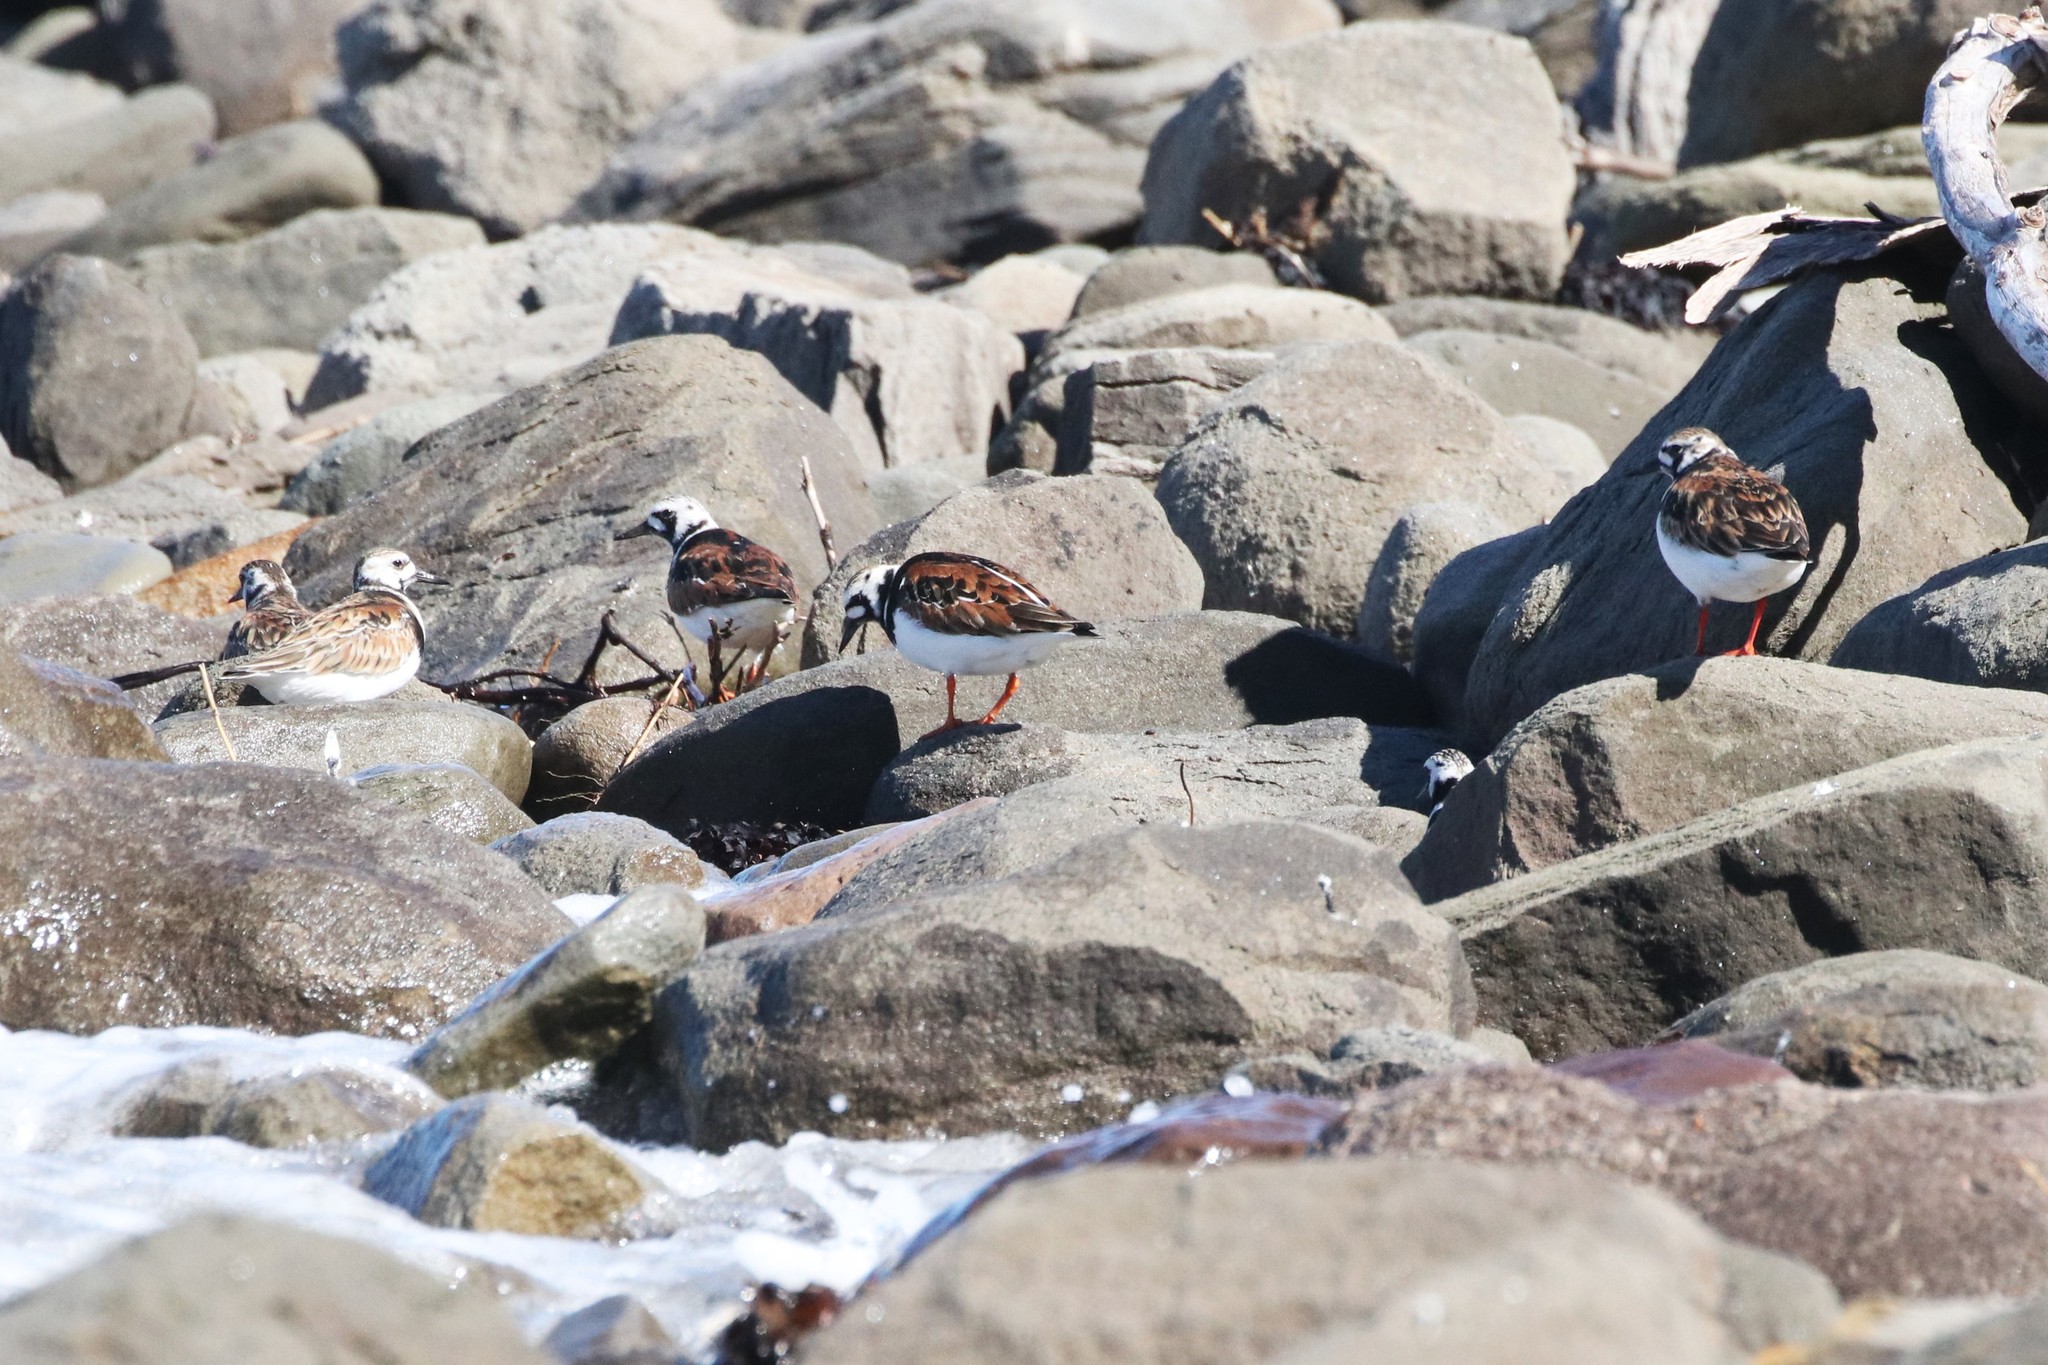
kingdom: Animalia
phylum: Chordata
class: Aves
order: Charadriiformes
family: Scolopacidae
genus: Arenaria
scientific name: Arenaria interpres
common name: Ruddy turnstone
